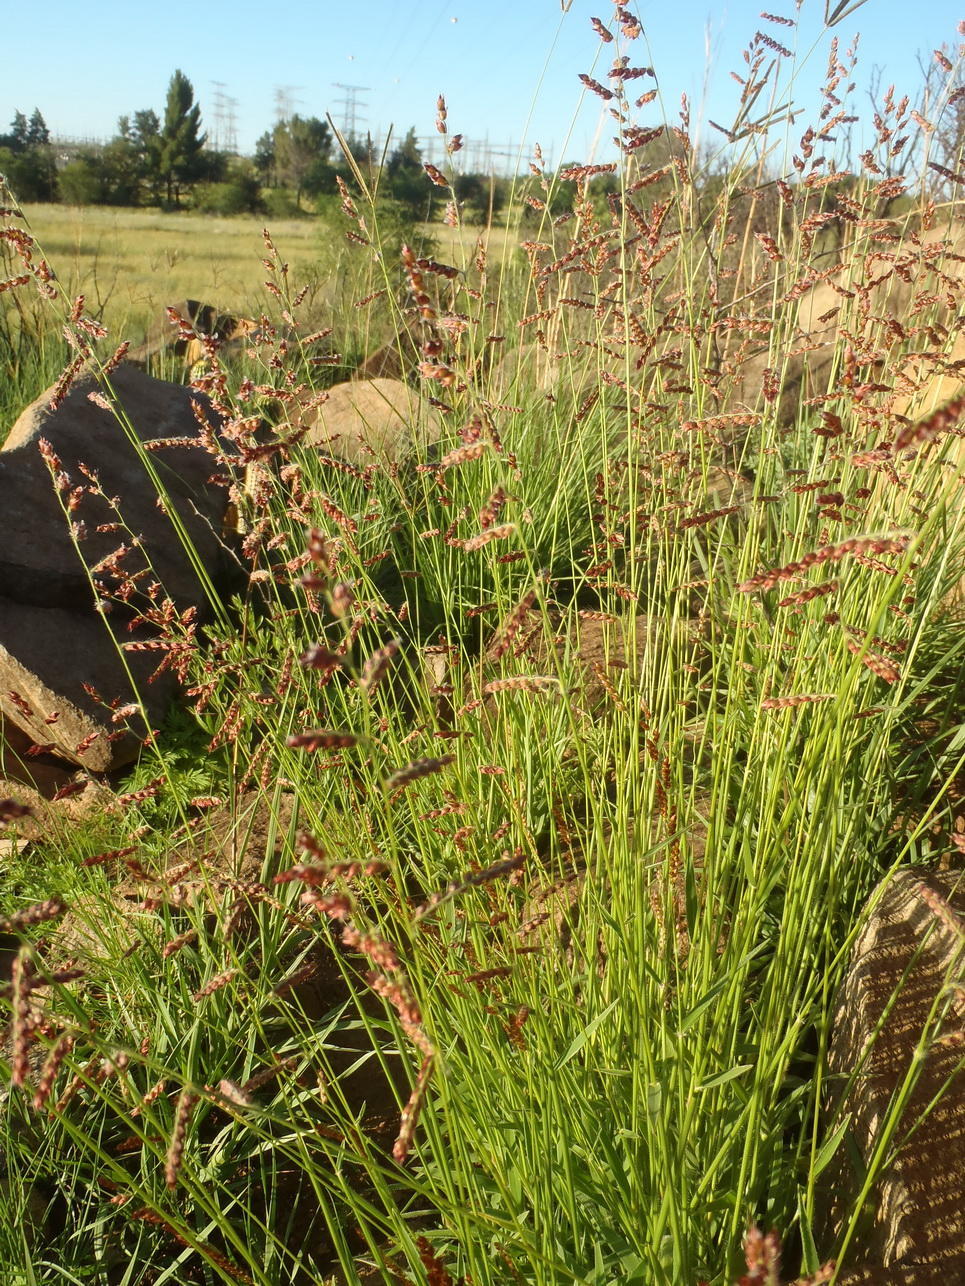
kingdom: Plantae
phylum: Tracheophyta
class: Liliopsida
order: Poales
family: Poaceae
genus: Urochloa
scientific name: Urochloa serrata
